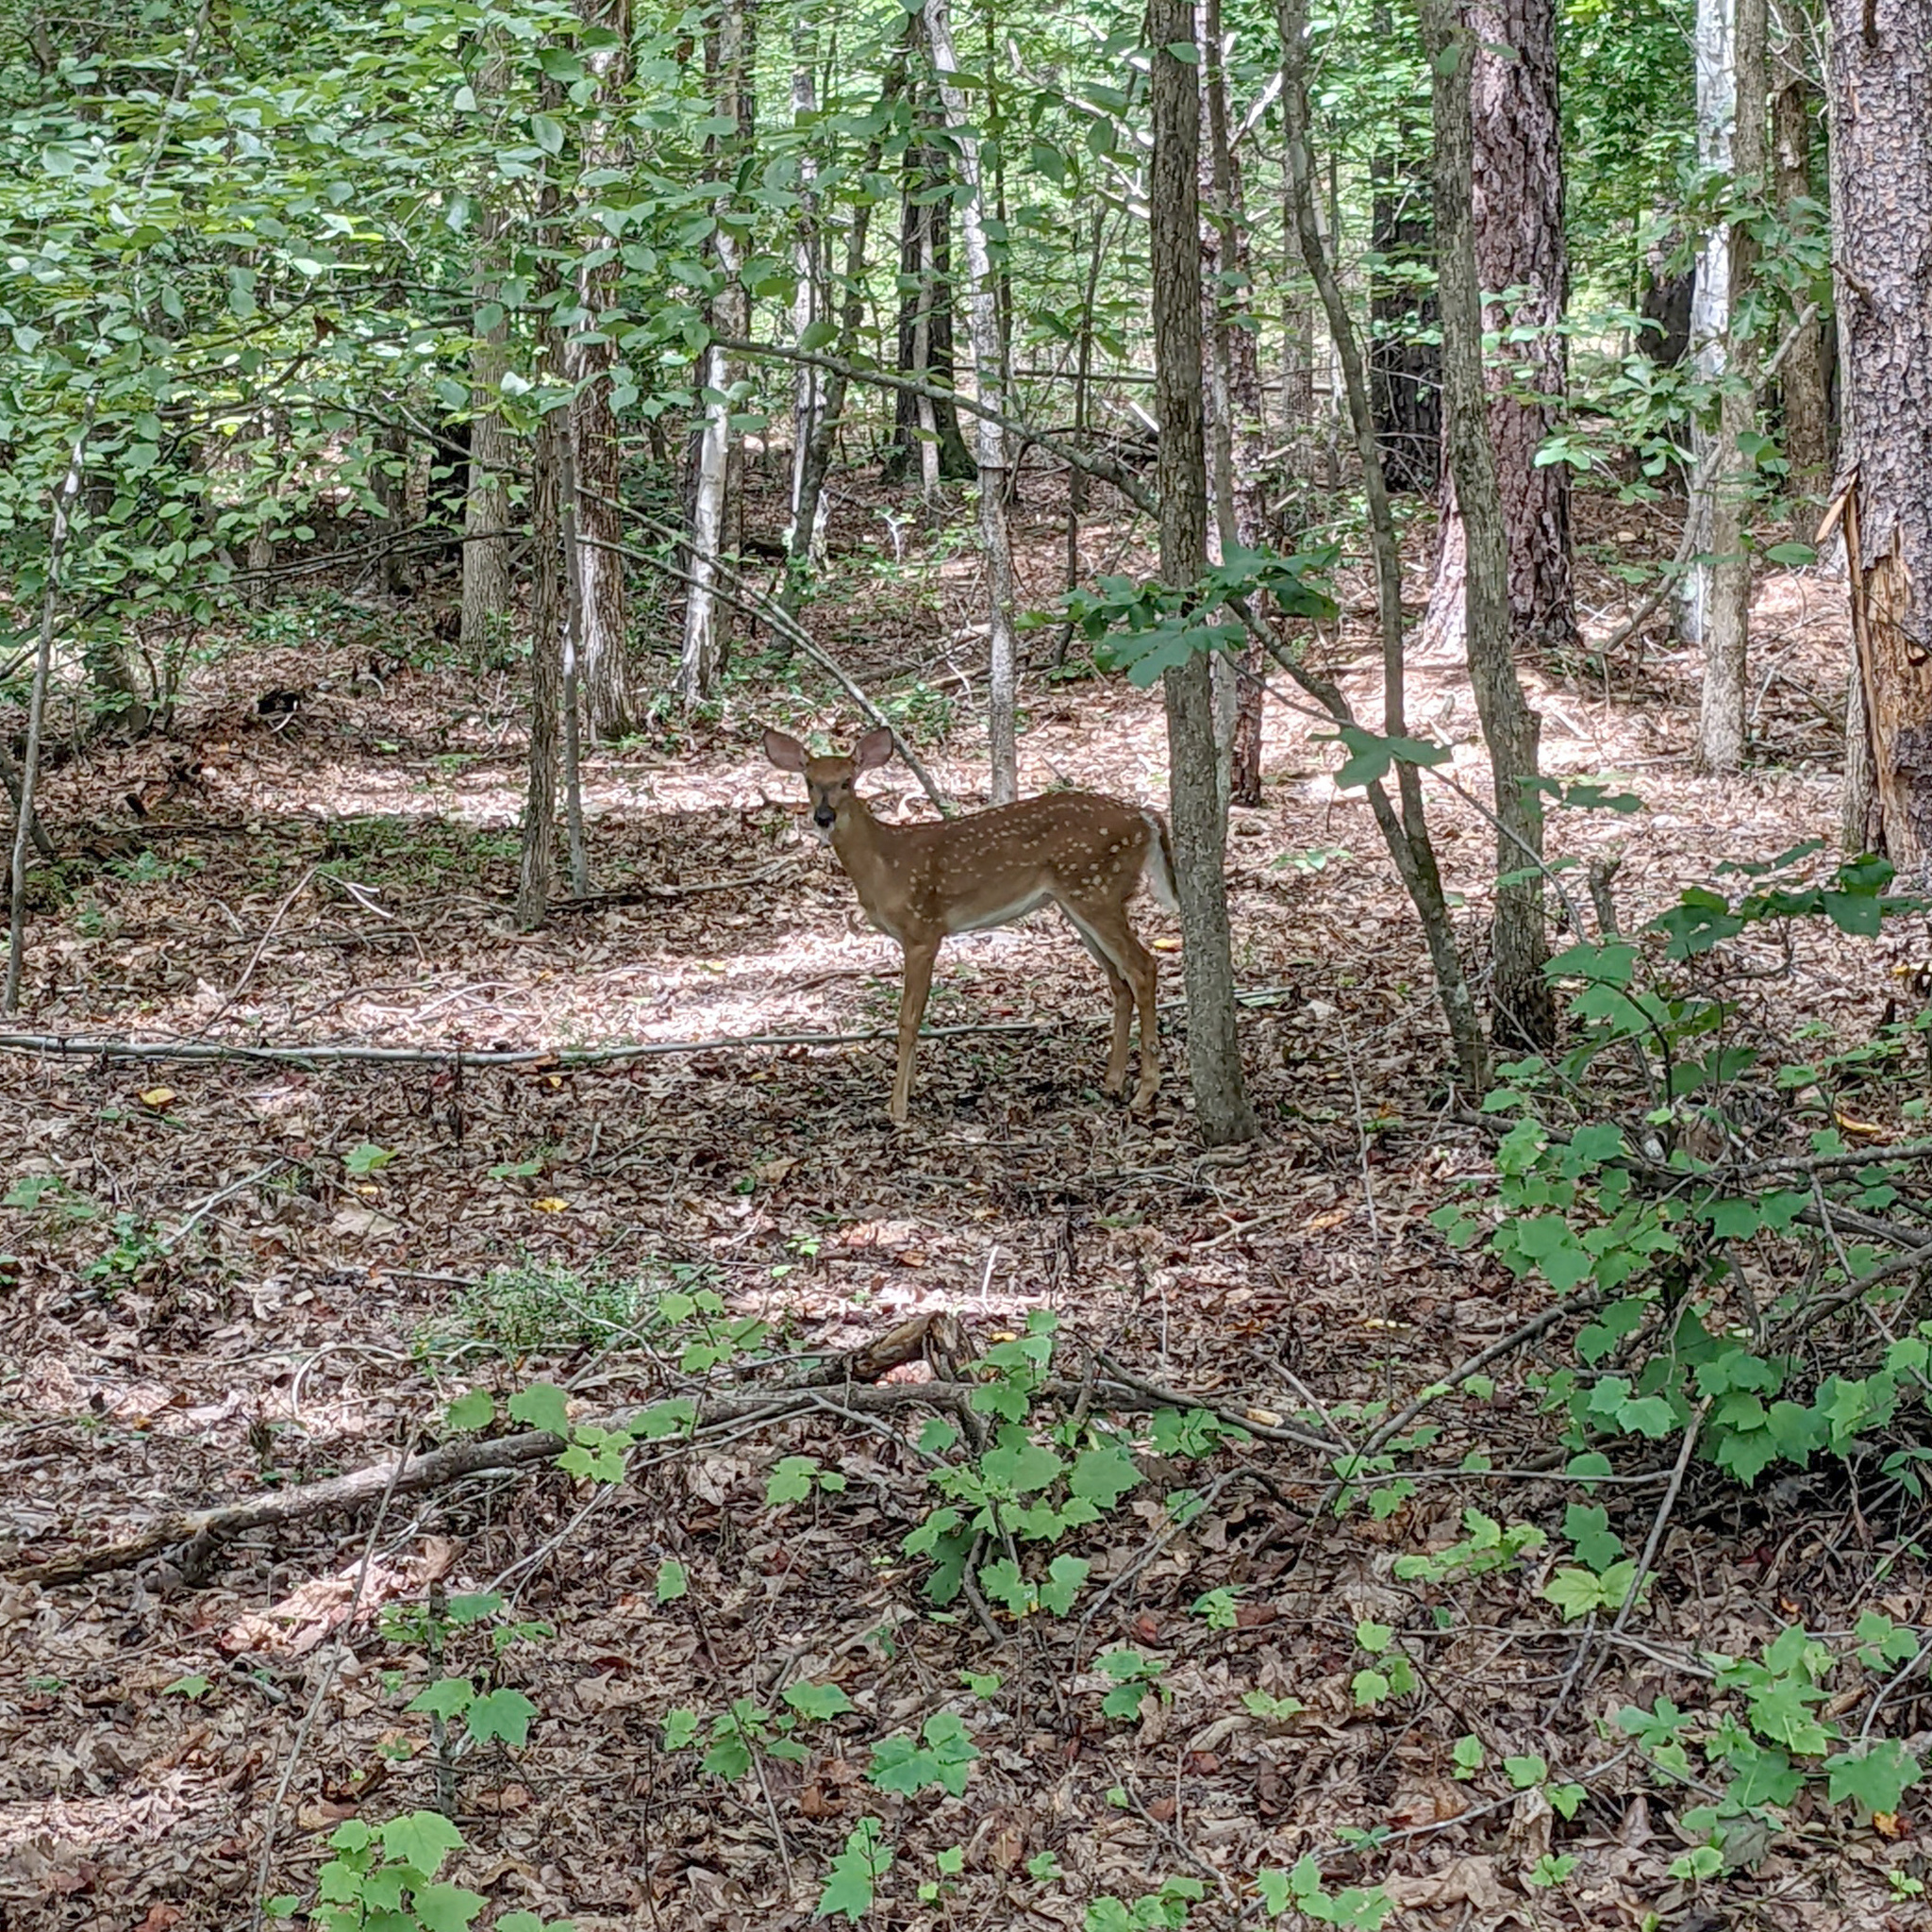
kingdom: Animalia
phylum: Chordata
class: Mammalia
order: Artiodactyla
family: Cervidae
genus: Odocoileus
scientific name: Odocoileus virginianus
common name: White-tailed deer
